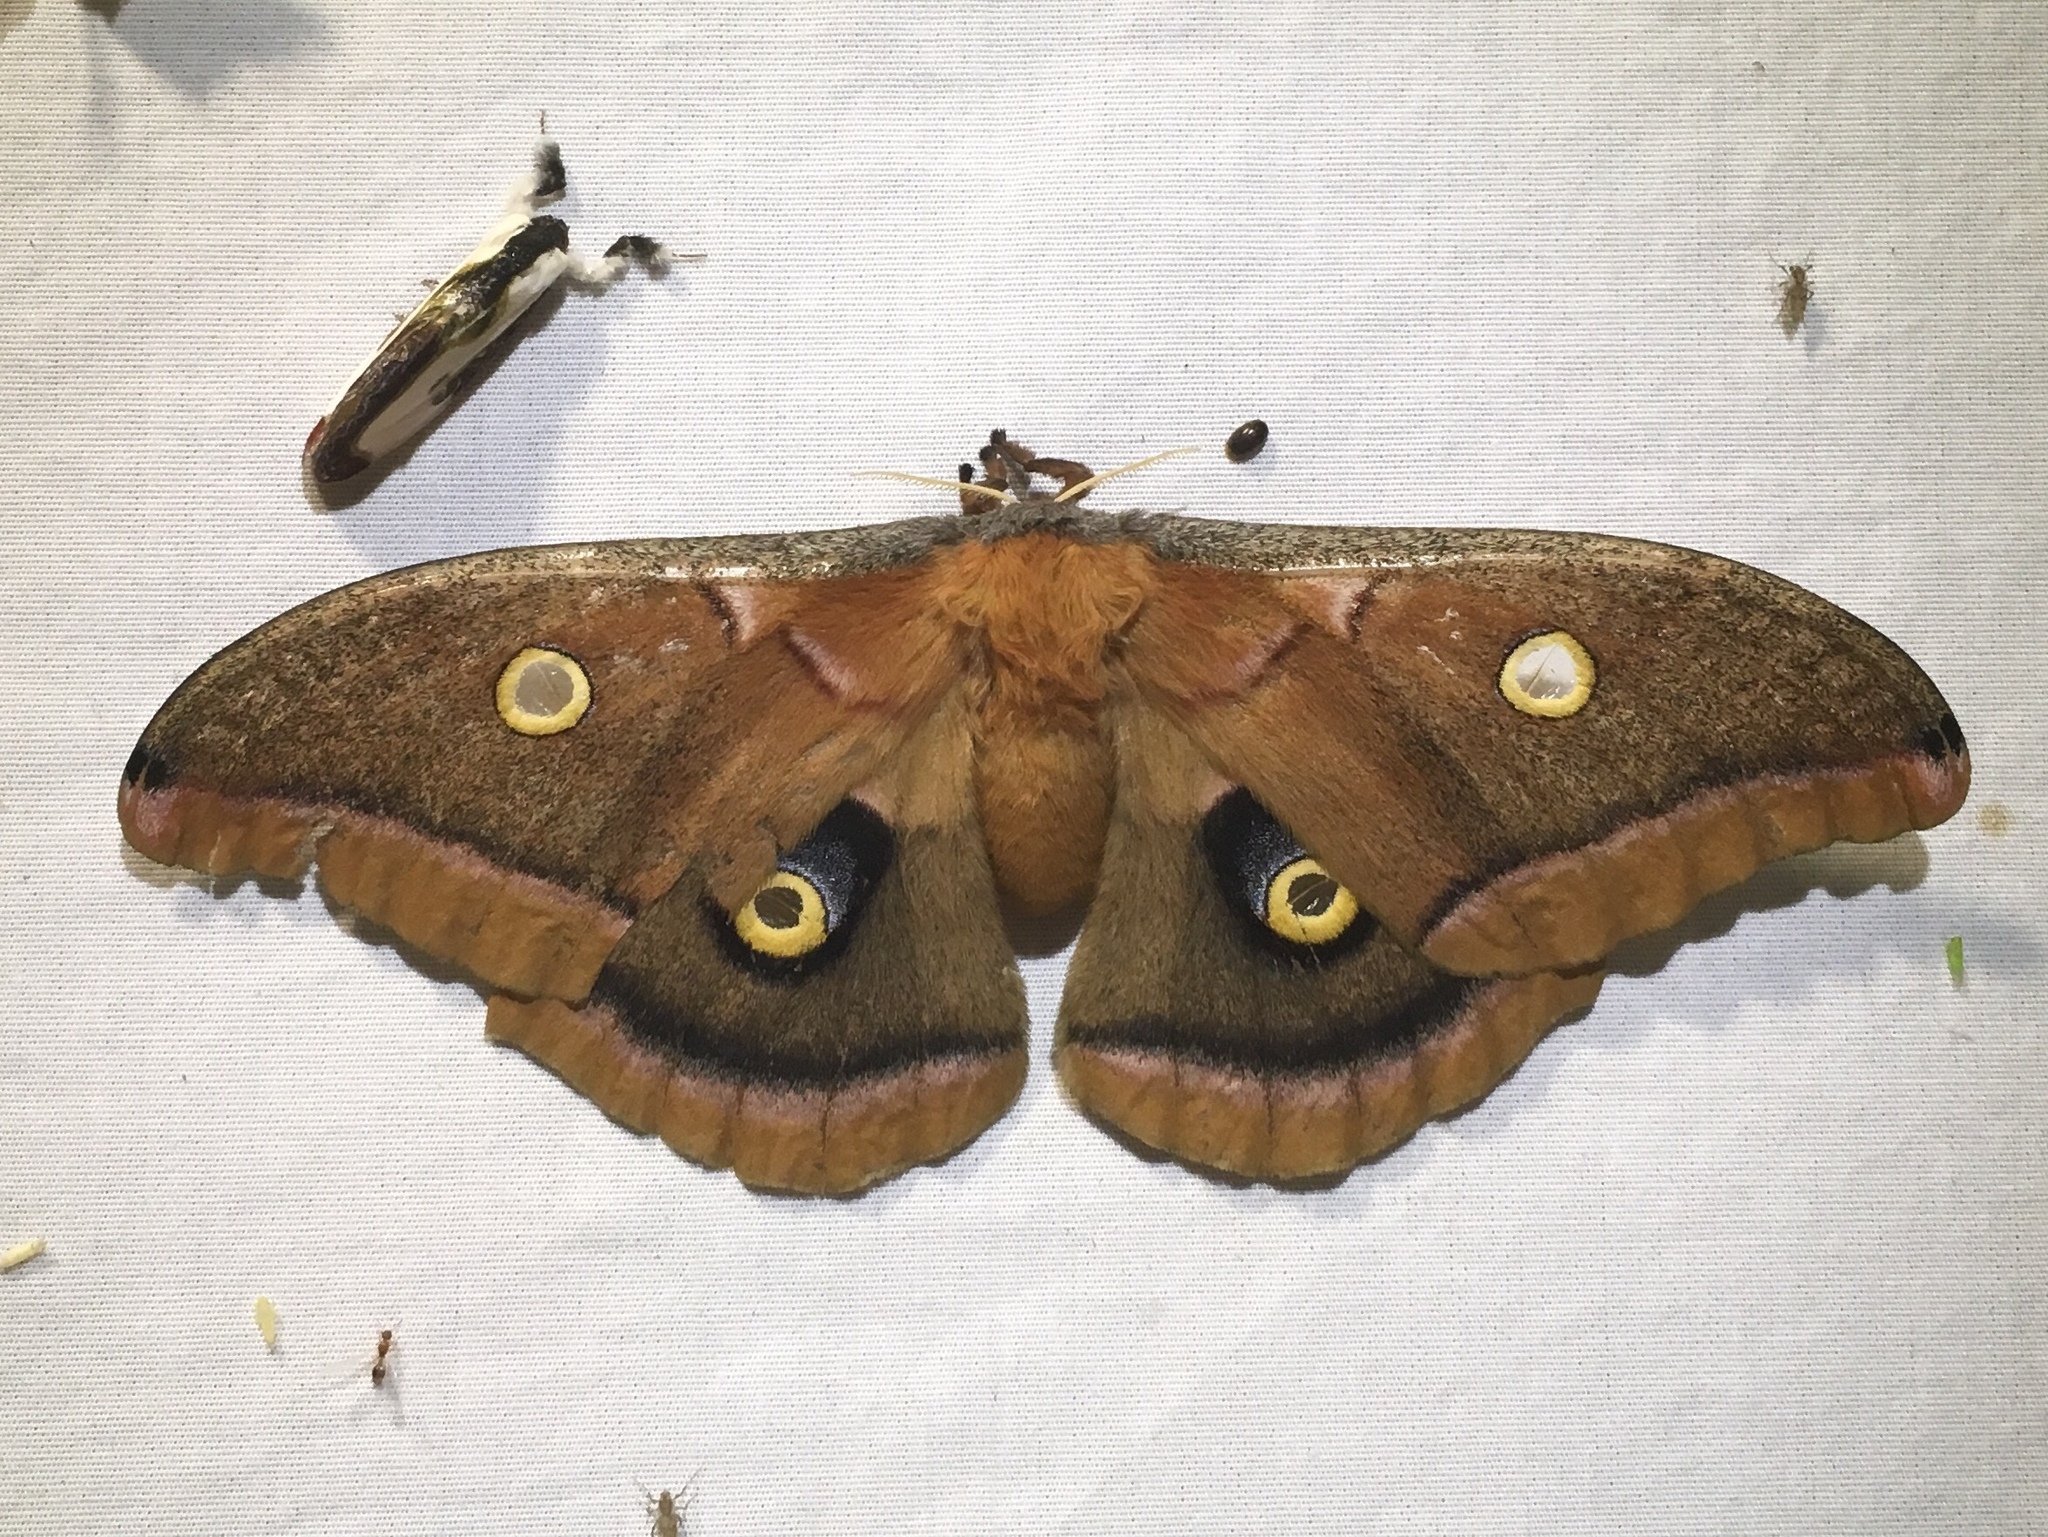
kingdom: Animalia
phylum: Arthropoda
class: Insecta
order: Lepidoptera
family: Saturniidae
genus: Antheraea
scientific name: Antheraea polyphemus
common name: Polyphemus moth
